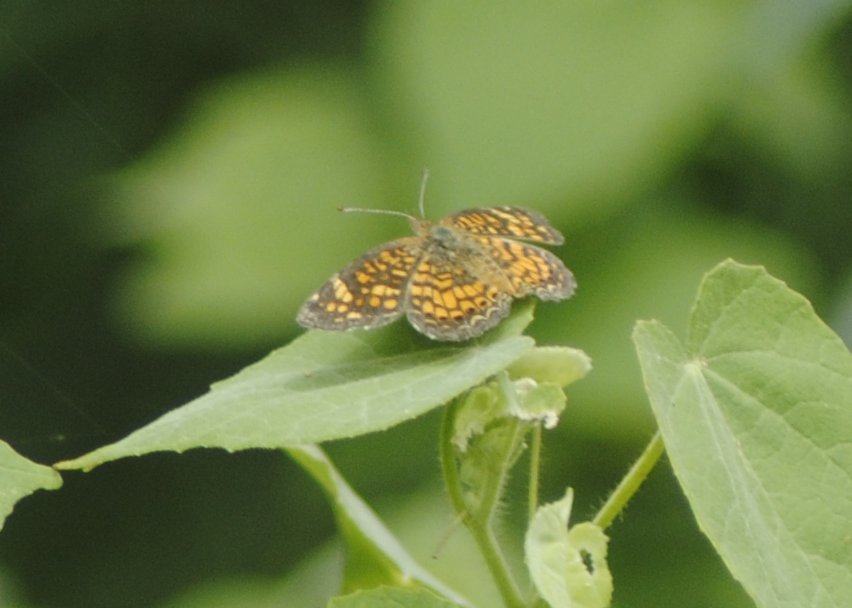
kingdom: Animalia
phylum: Arthropoda
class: Insecta
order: Lepidoptera
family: Nymphalidae
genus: Phyciodes
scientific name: Phyciodes vesta
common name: Vesta crescent
